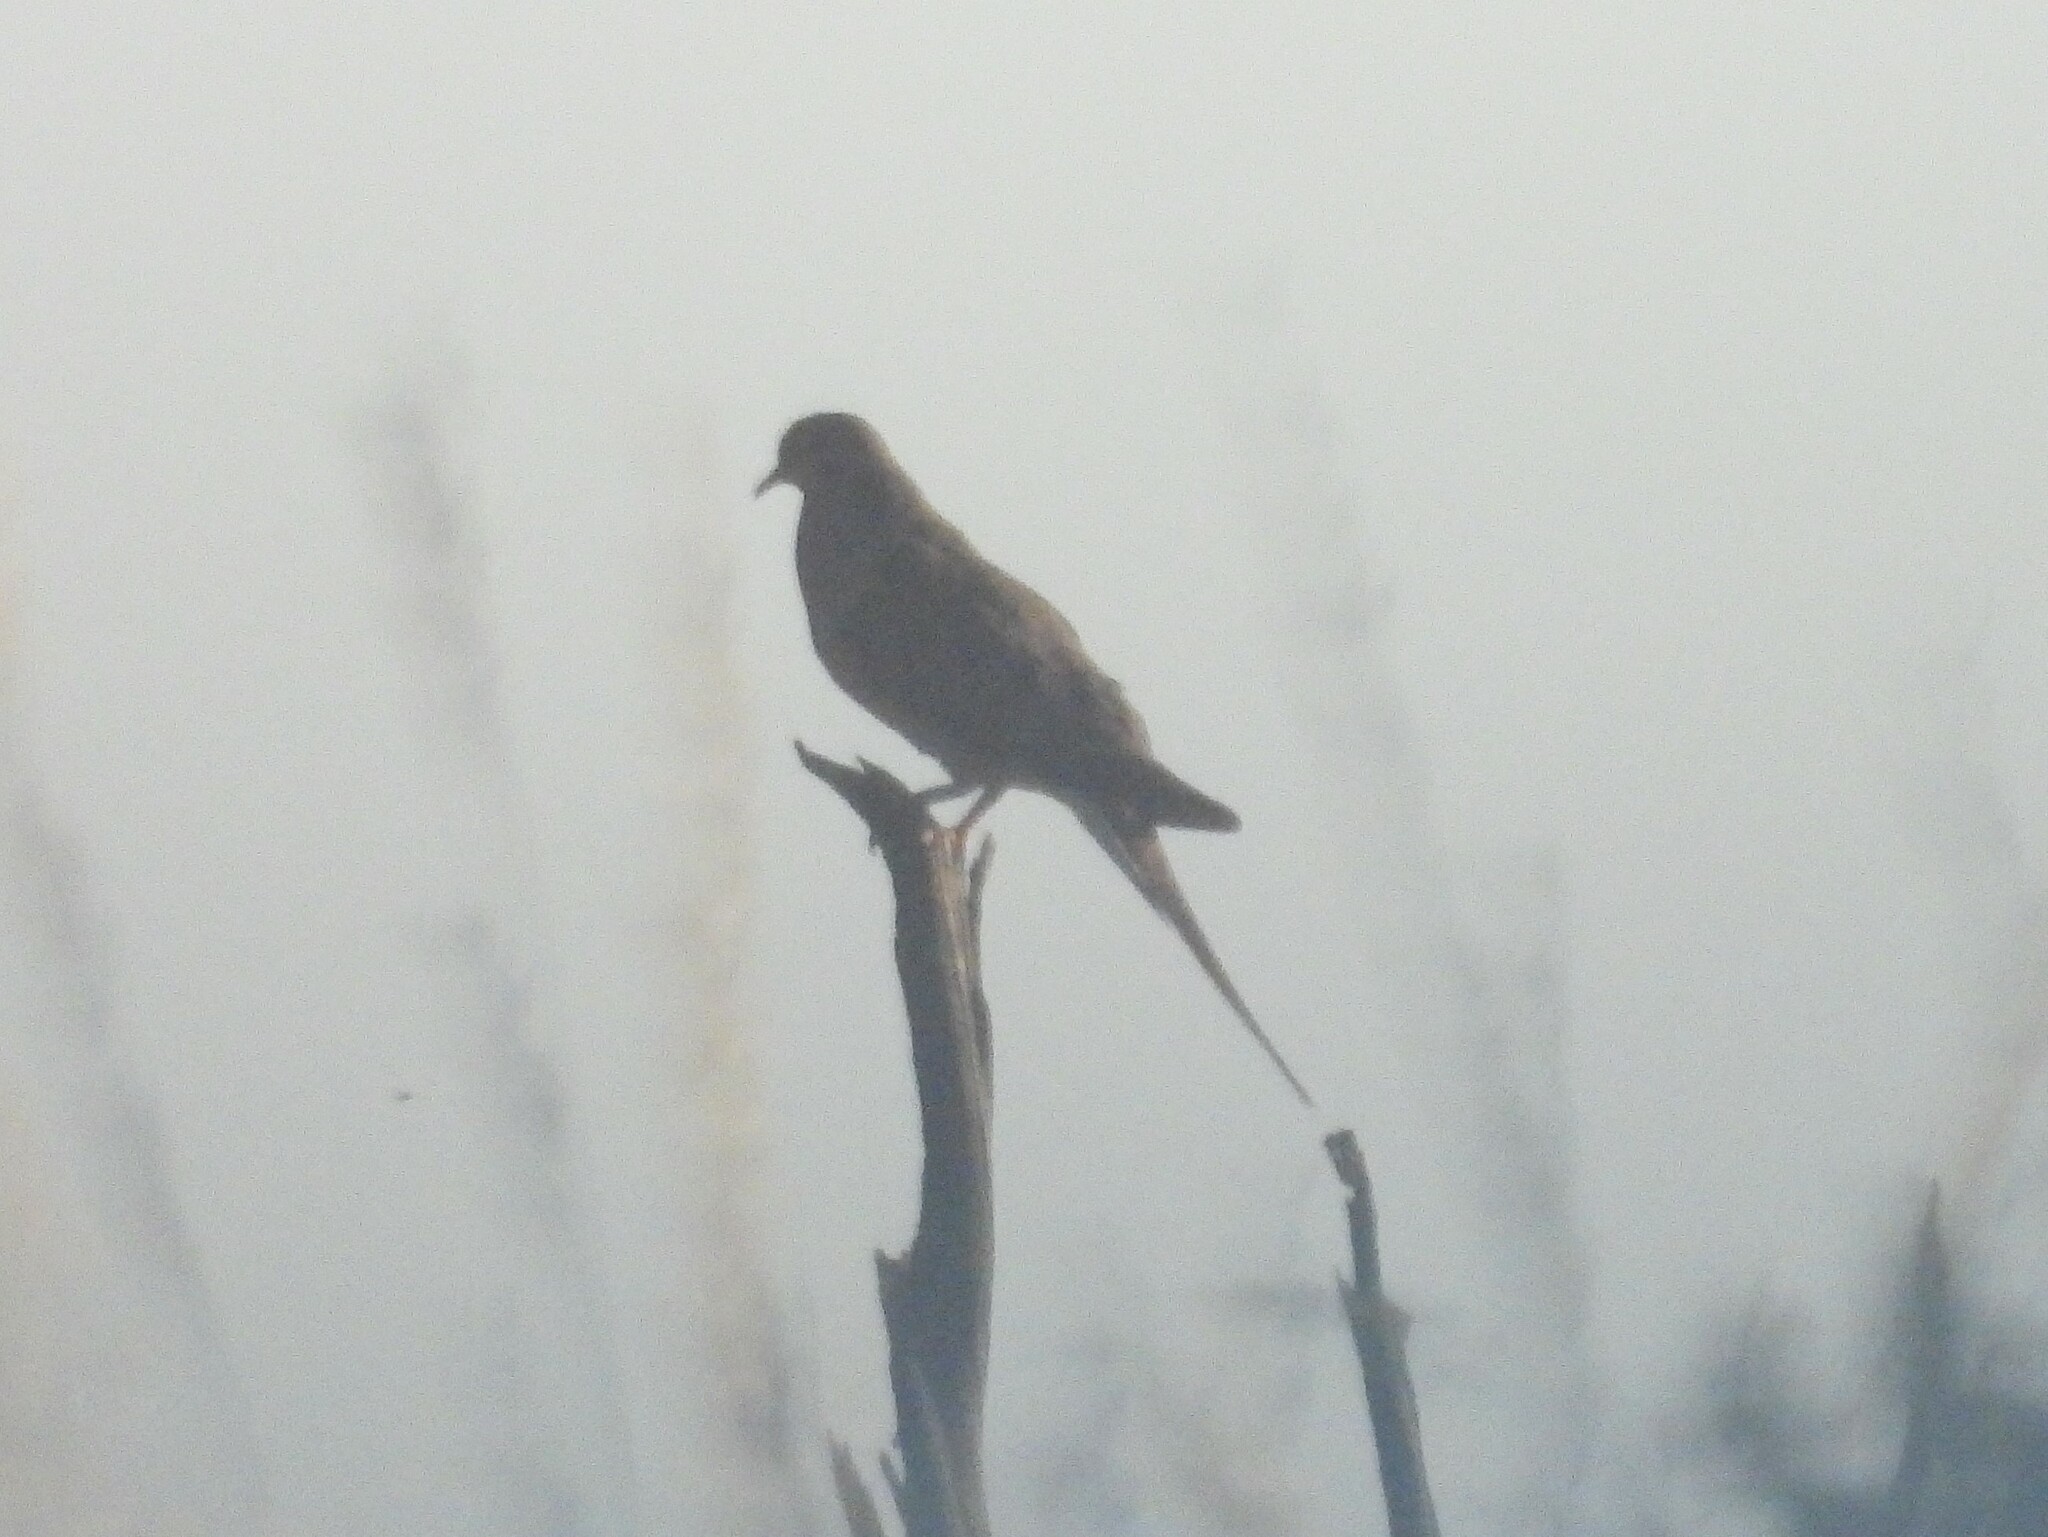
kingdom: Animalia
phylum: Chordata
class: Aves
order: Columbiformes
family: Columbidae
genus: Zenaida
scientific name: Zenaida macroura
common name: Mourning dove
